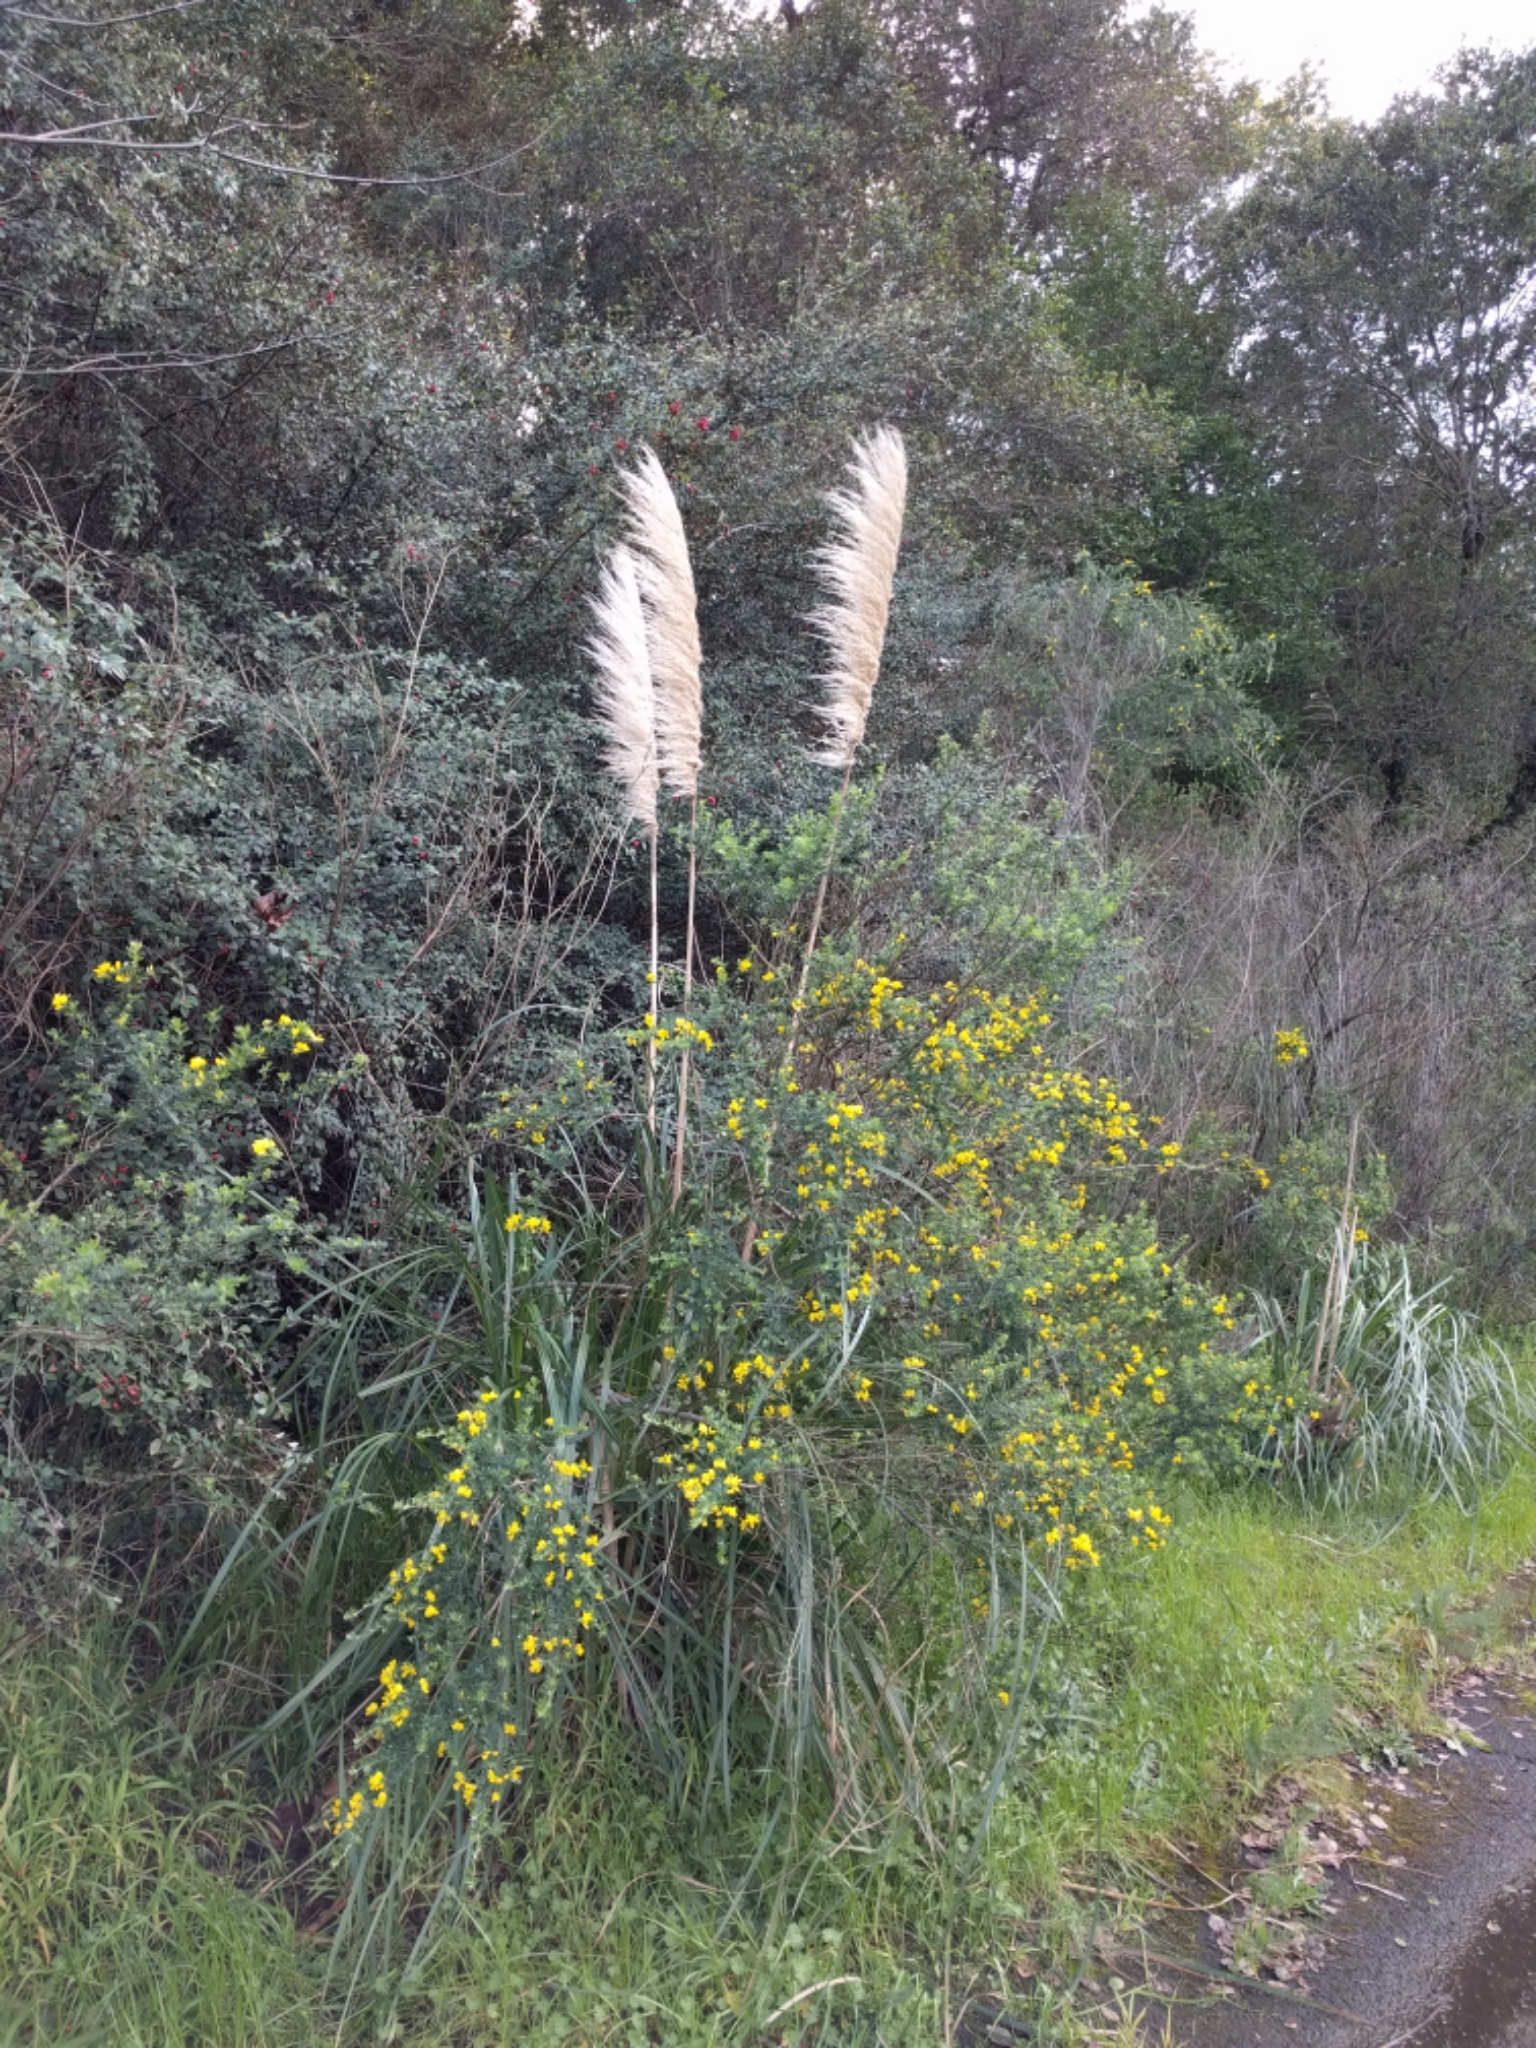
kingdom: Plantae
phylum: Tracheophyta
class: Liliopsida
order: Poales
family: Poaceae
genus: Cortaderia
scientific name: Cortaderia jubata
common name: Purple pampas grass
